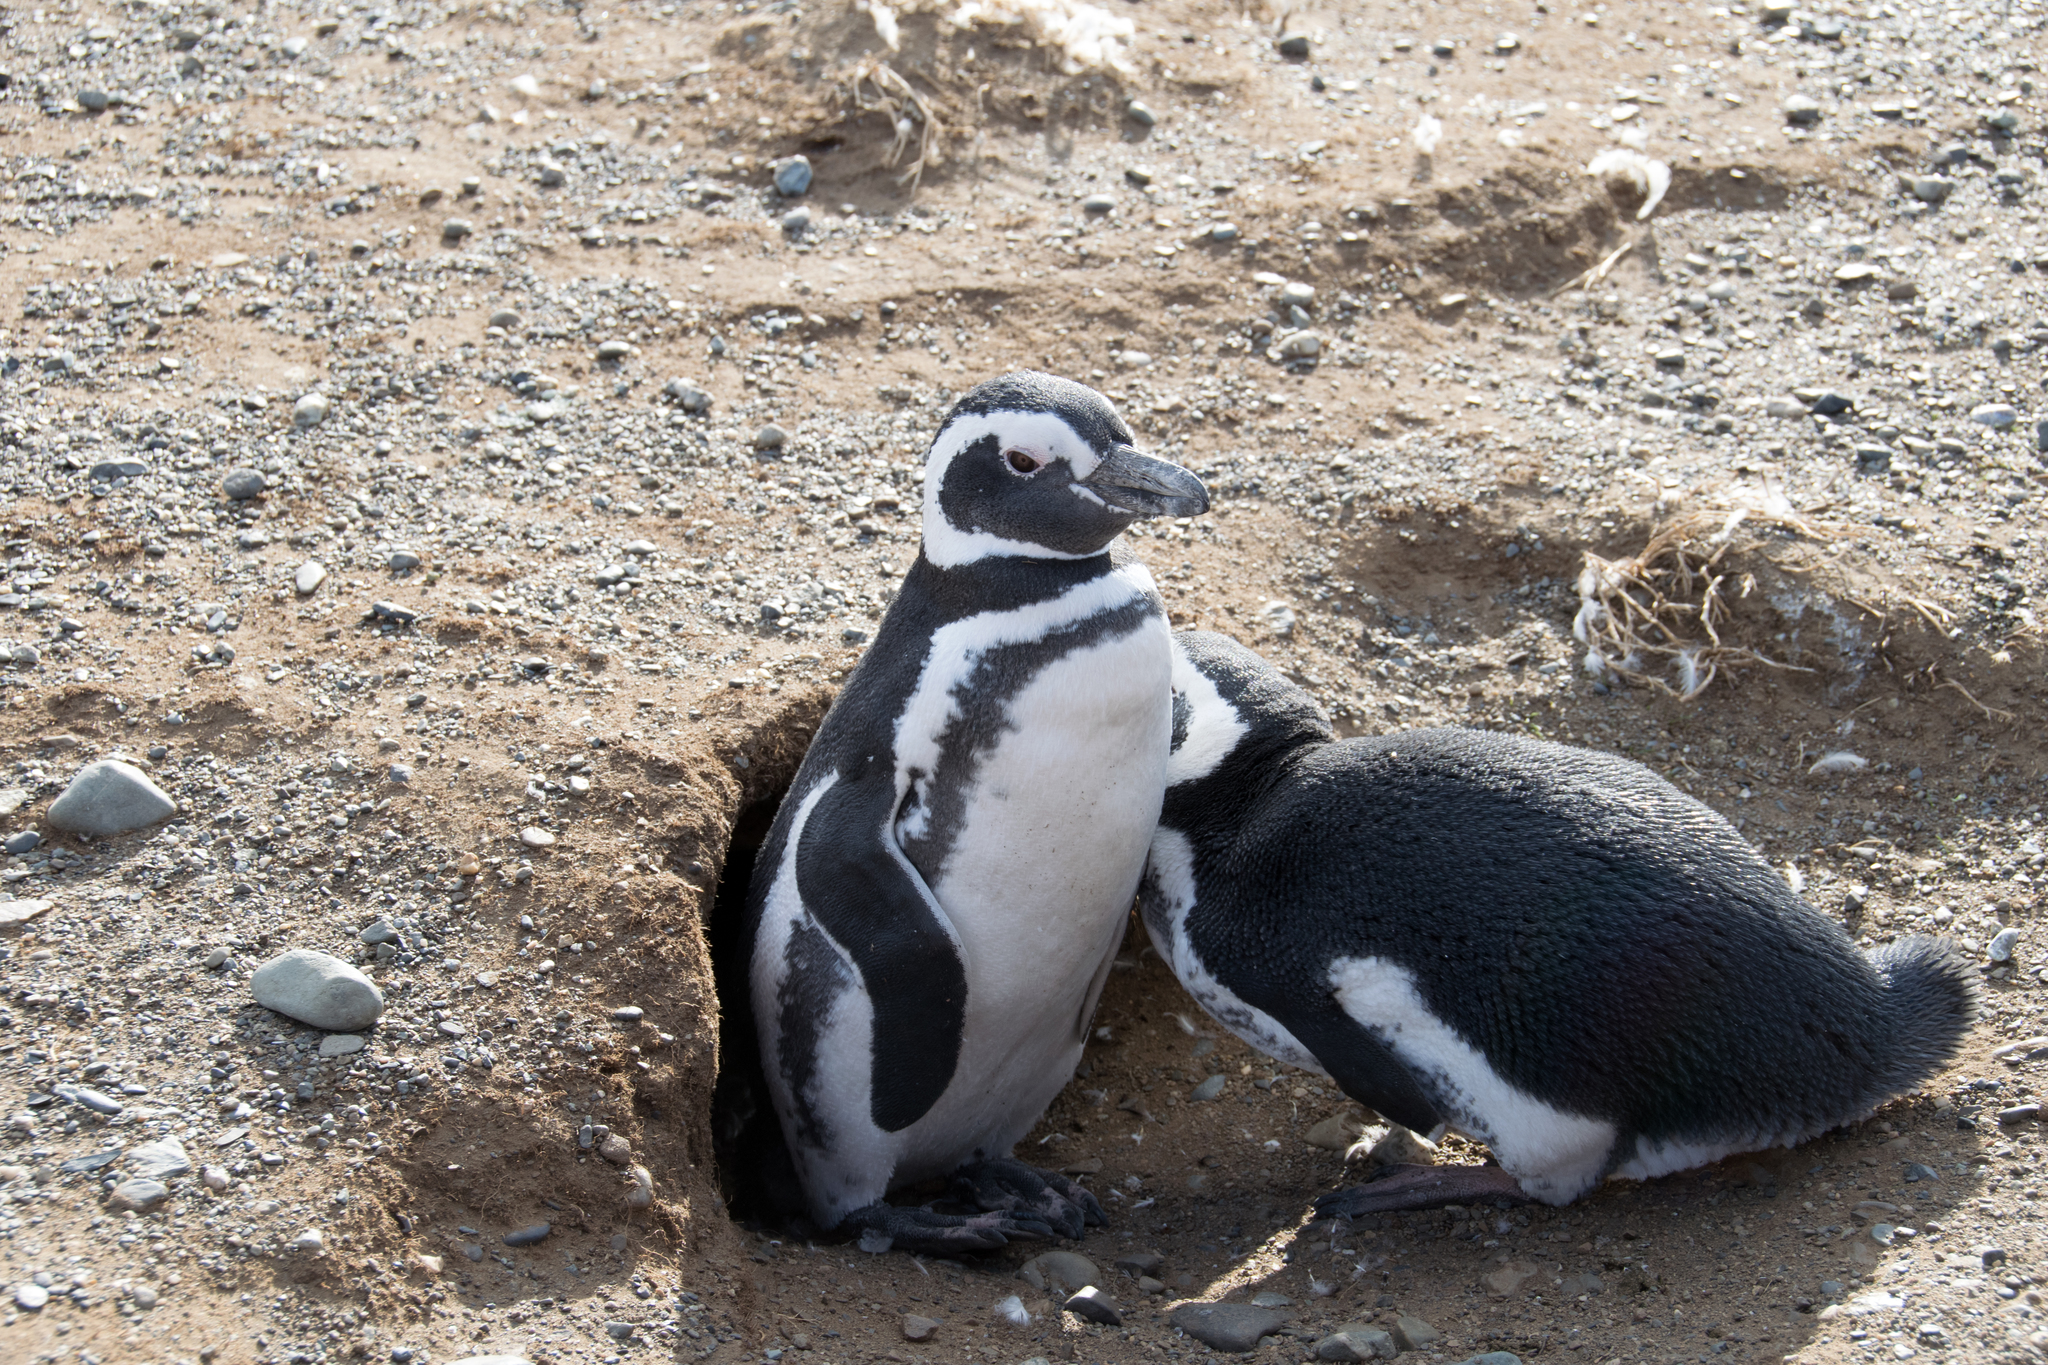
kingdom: Animalia
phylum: Chordata
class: Aves
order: Sphenisciformes
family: Spheniscidae
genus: Spheniscus
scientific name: Spheniscus magellanicus
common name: Magellanic penguin
